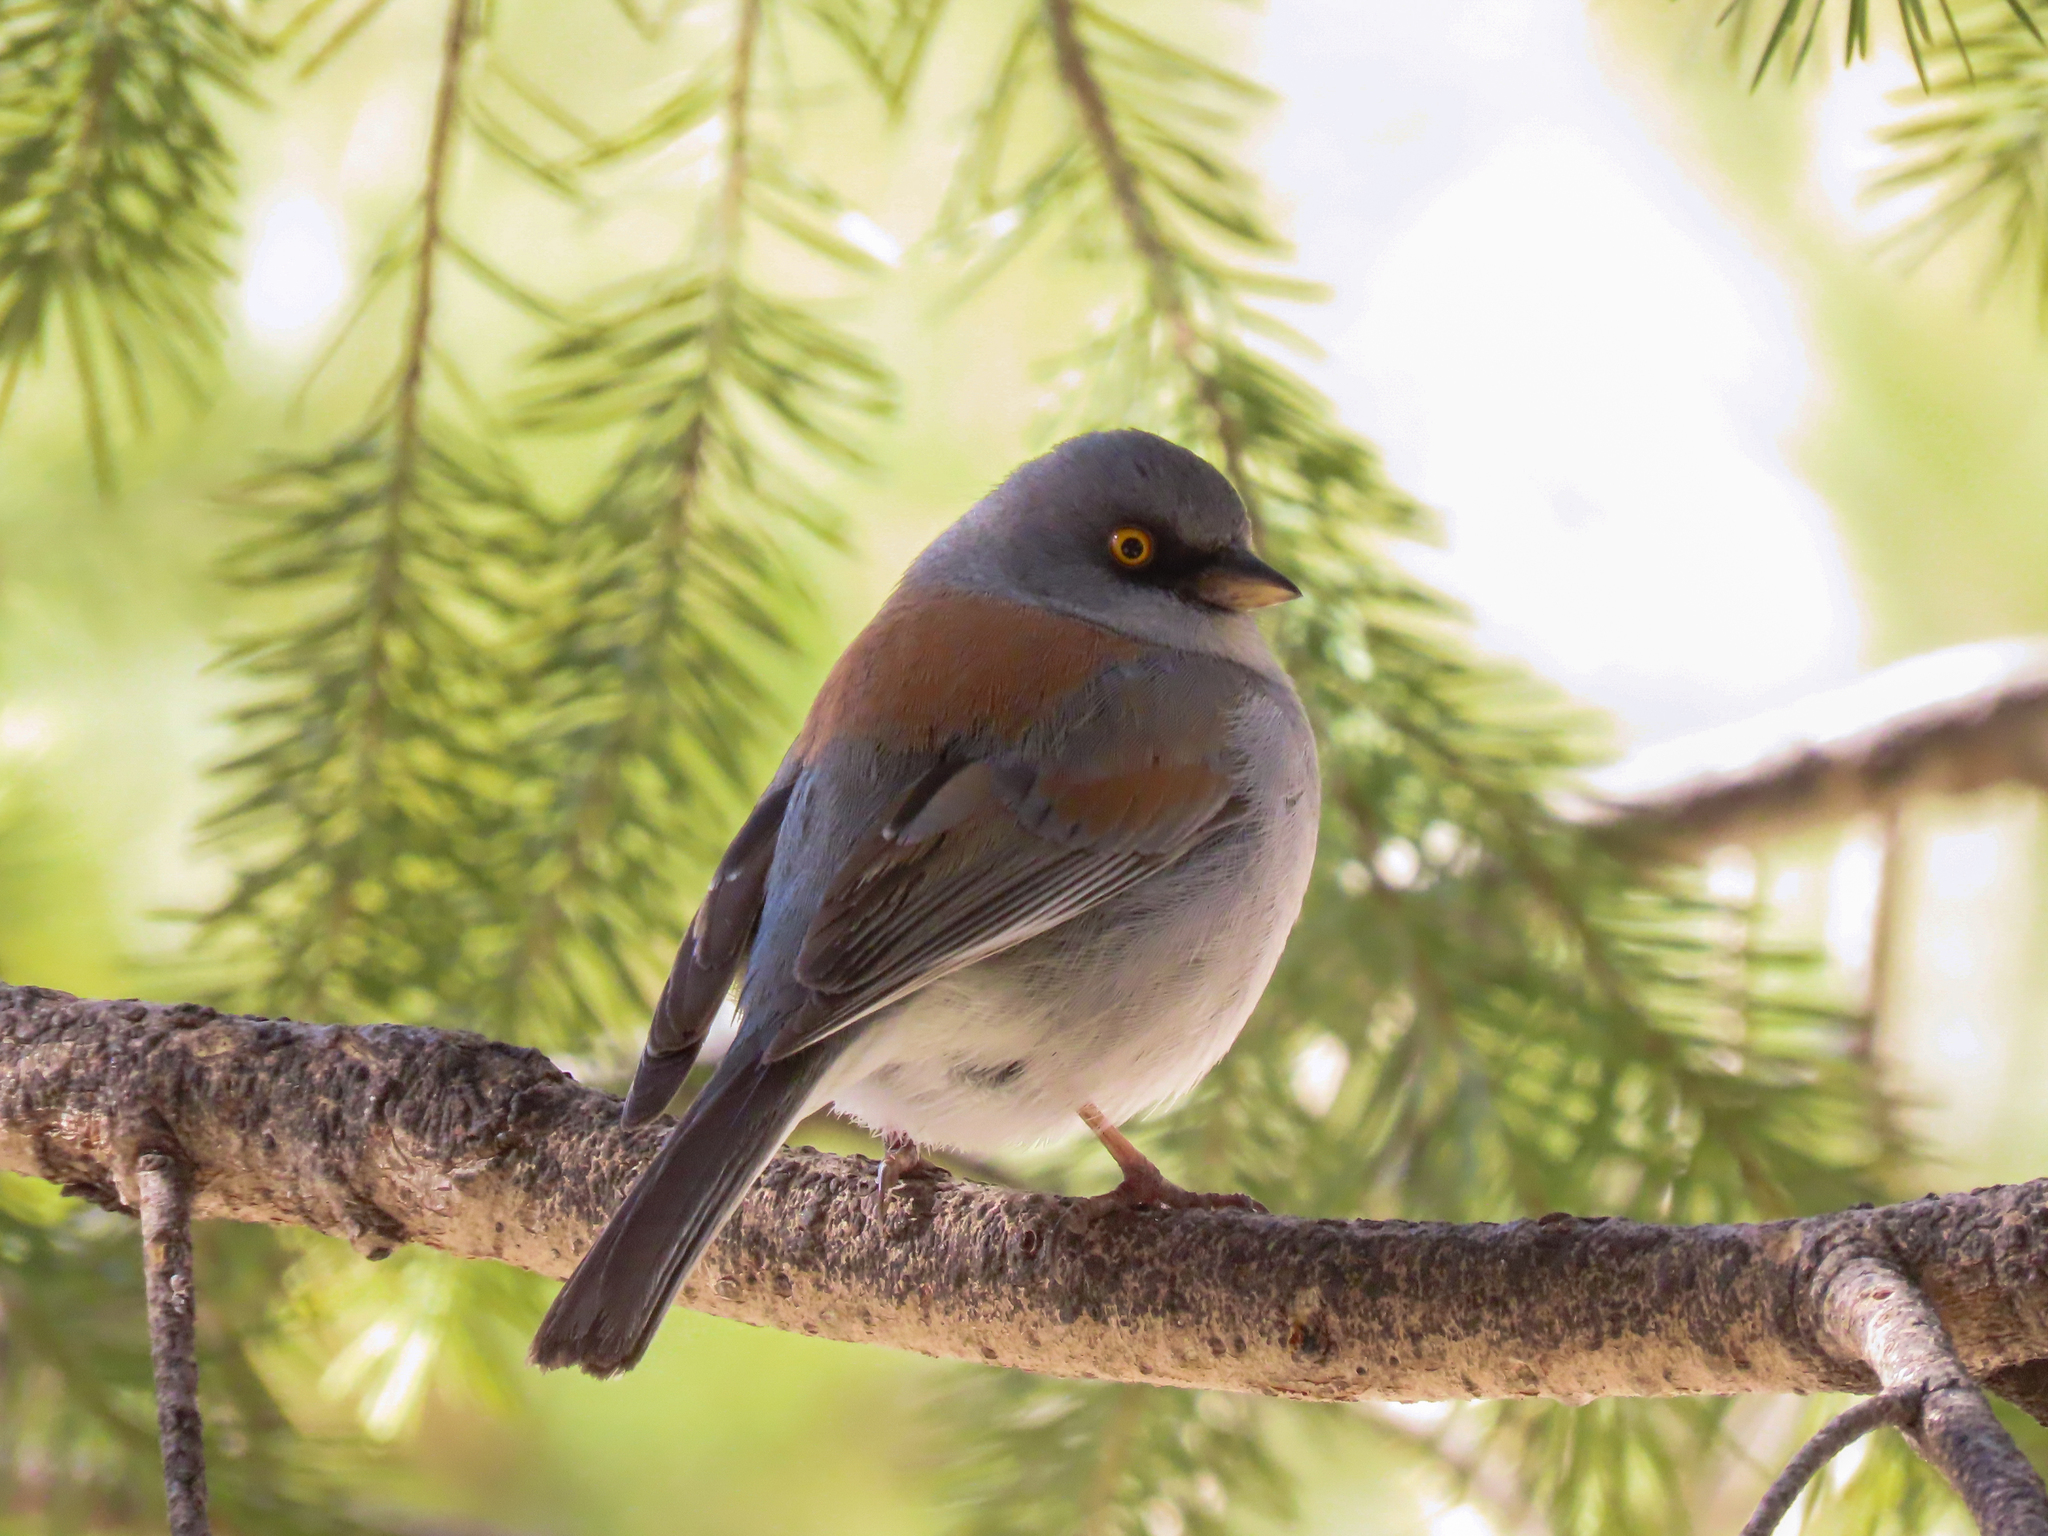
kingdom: Animalia
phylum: Chordata
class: Aves
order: Passeriformes
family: Passerellidae
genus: Junco
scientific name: Junco phaeonotus
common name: Yellow-eyed junco
